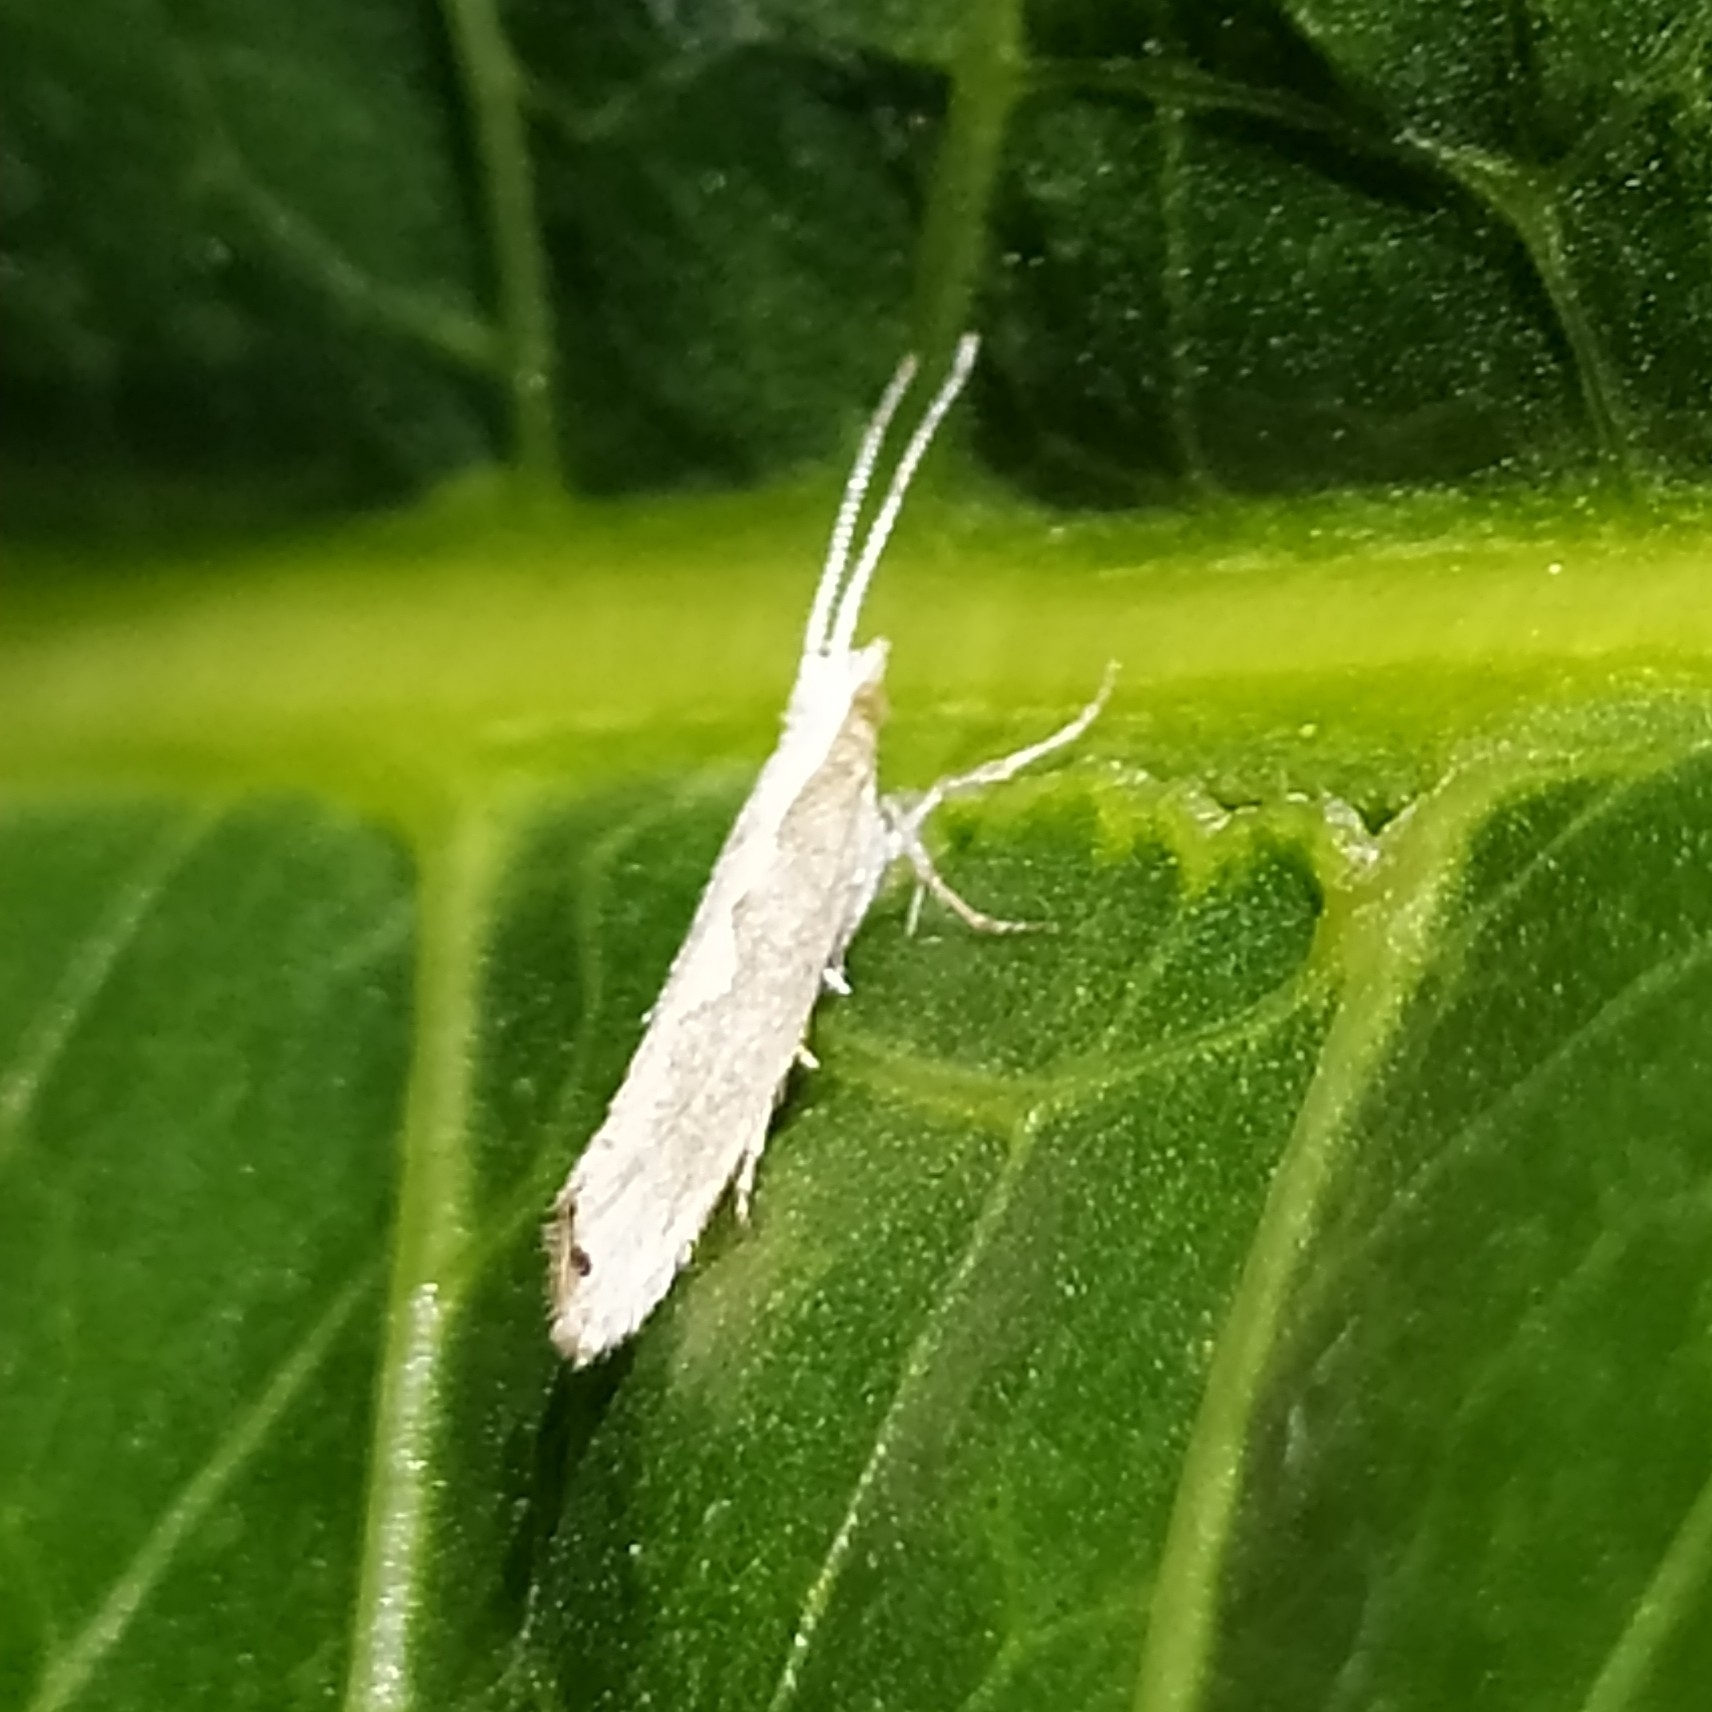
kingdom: Animalia
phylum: Arthropoda
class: Insecta
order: Lepidoptera
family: Plutellidae
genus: Plutella
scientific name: Plutella xylostella
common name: Diamond-back moth
